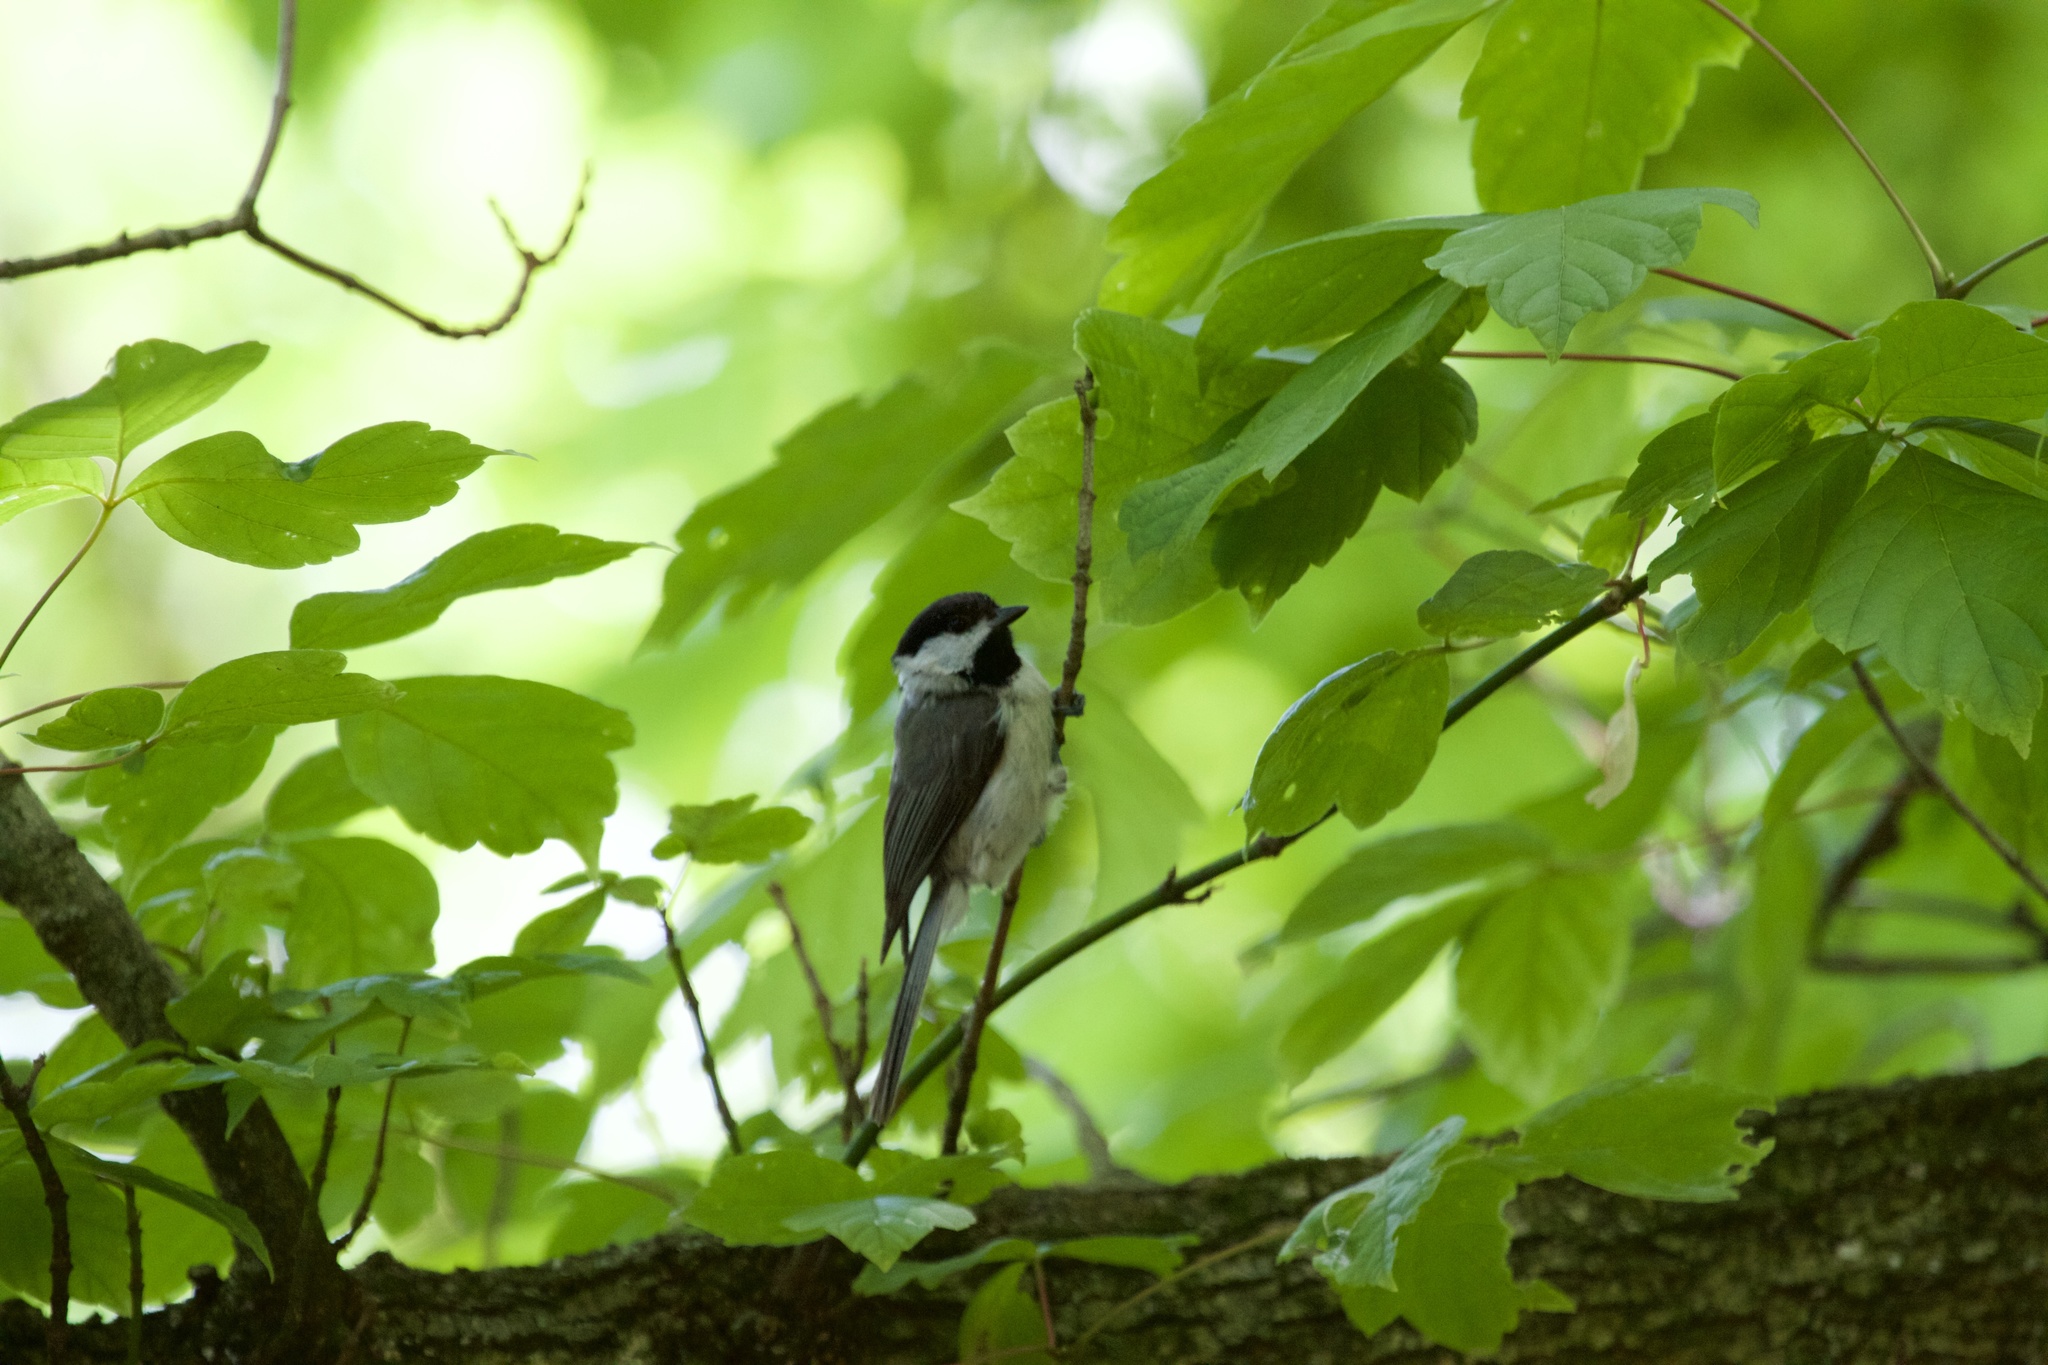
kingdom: Animalia
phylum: Chordata
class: Aves
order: Passeriformes
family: Paridae
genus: Poecile
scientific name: Poecile carolinensis
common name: Carolina chickadee
